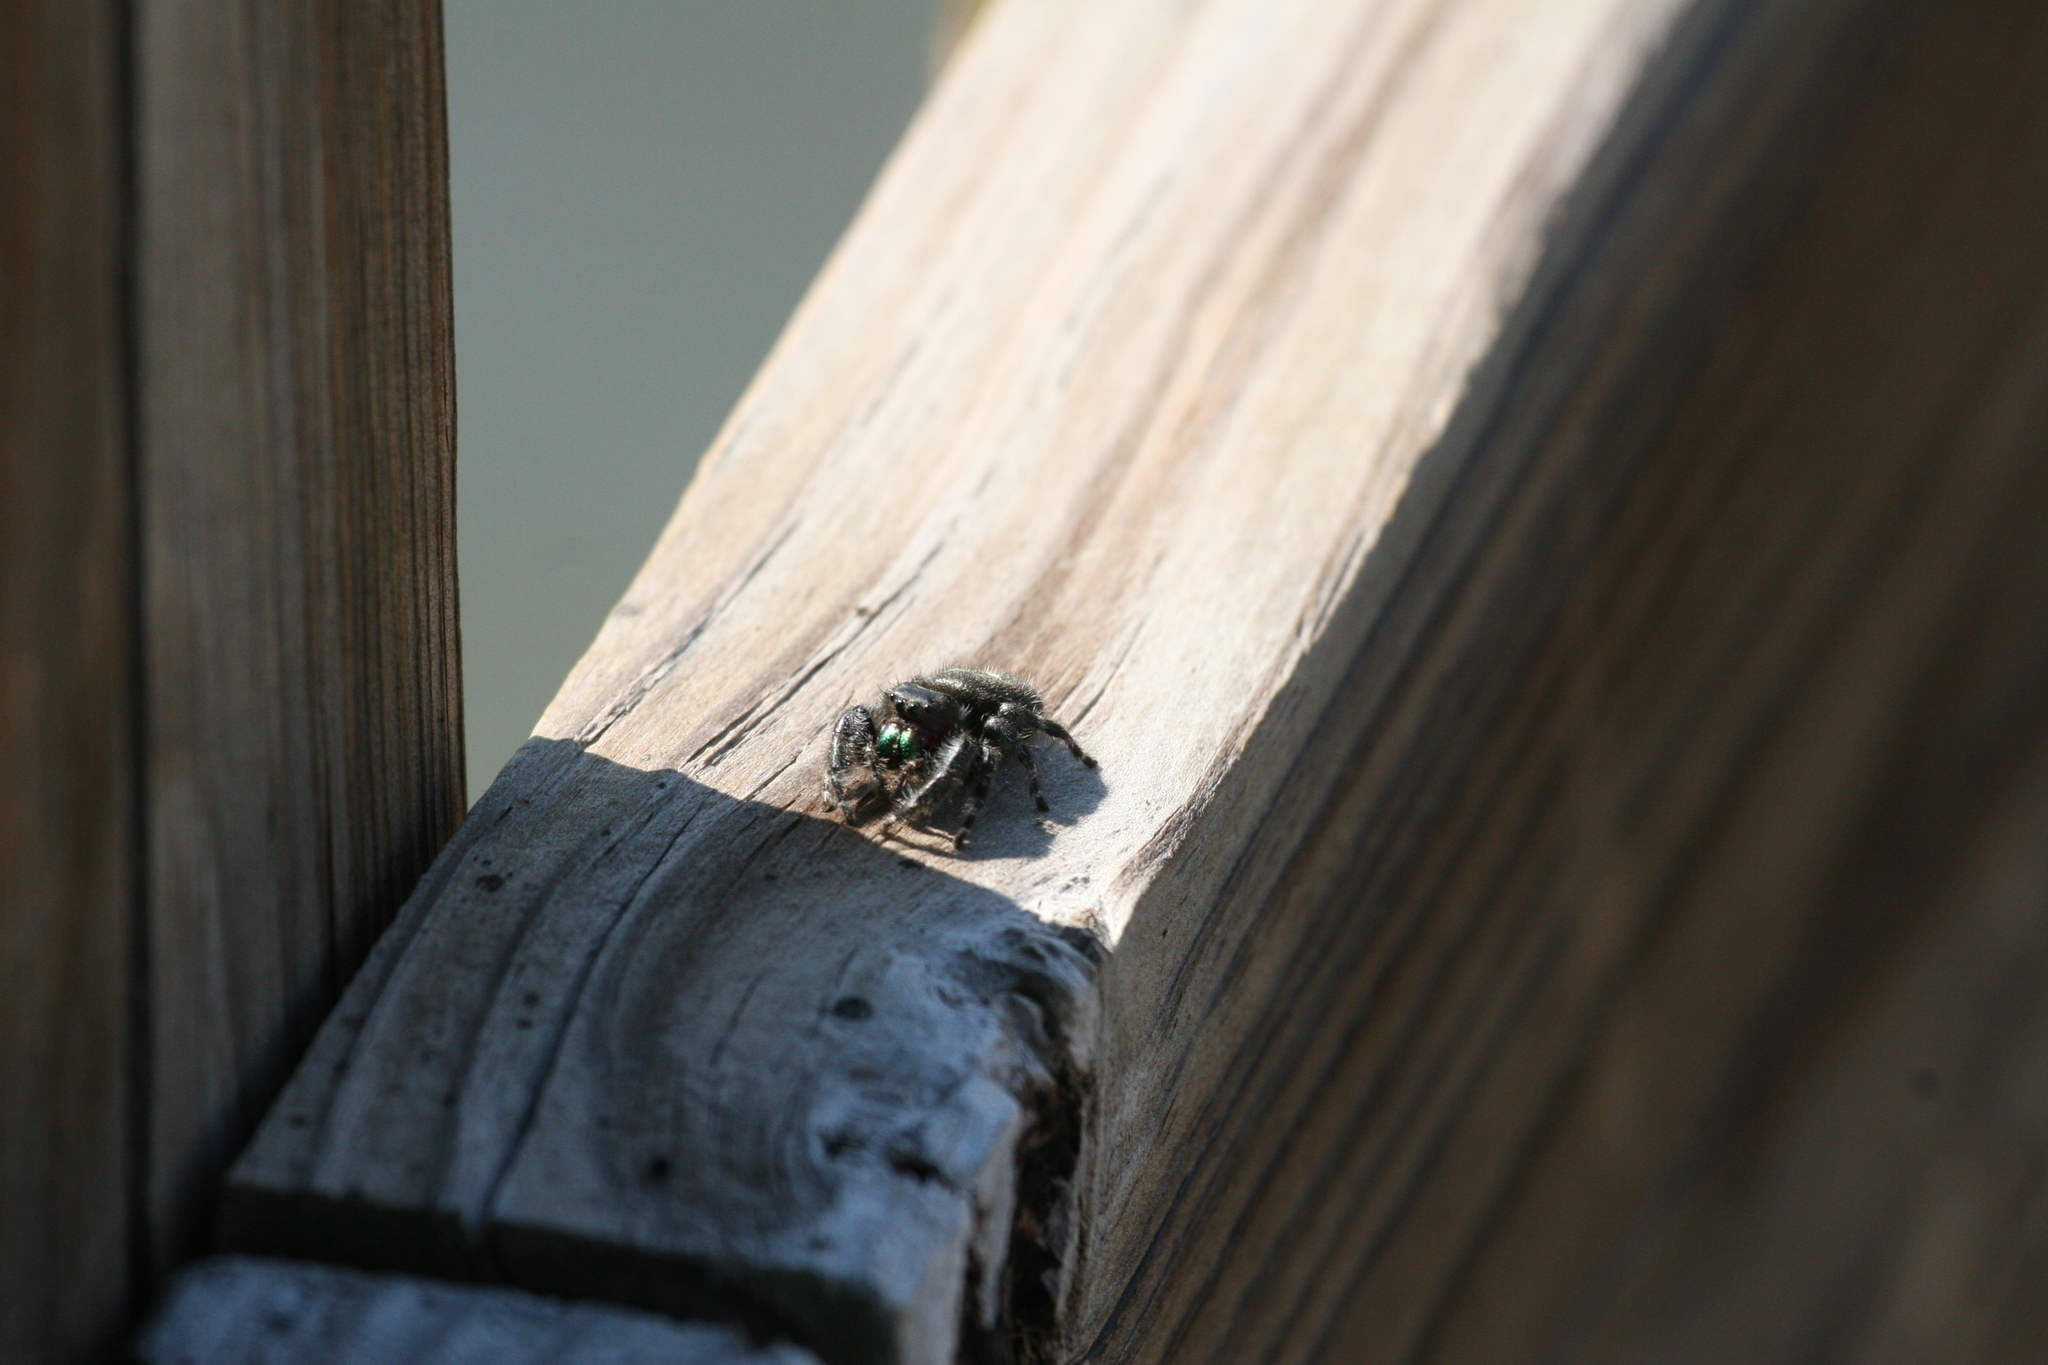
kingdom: Animalia
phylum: Arthropoda
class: Arachnida
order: Araneae
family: Salticidae
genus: Phidippus
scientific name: Phidippus audax
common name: Bold jumper
